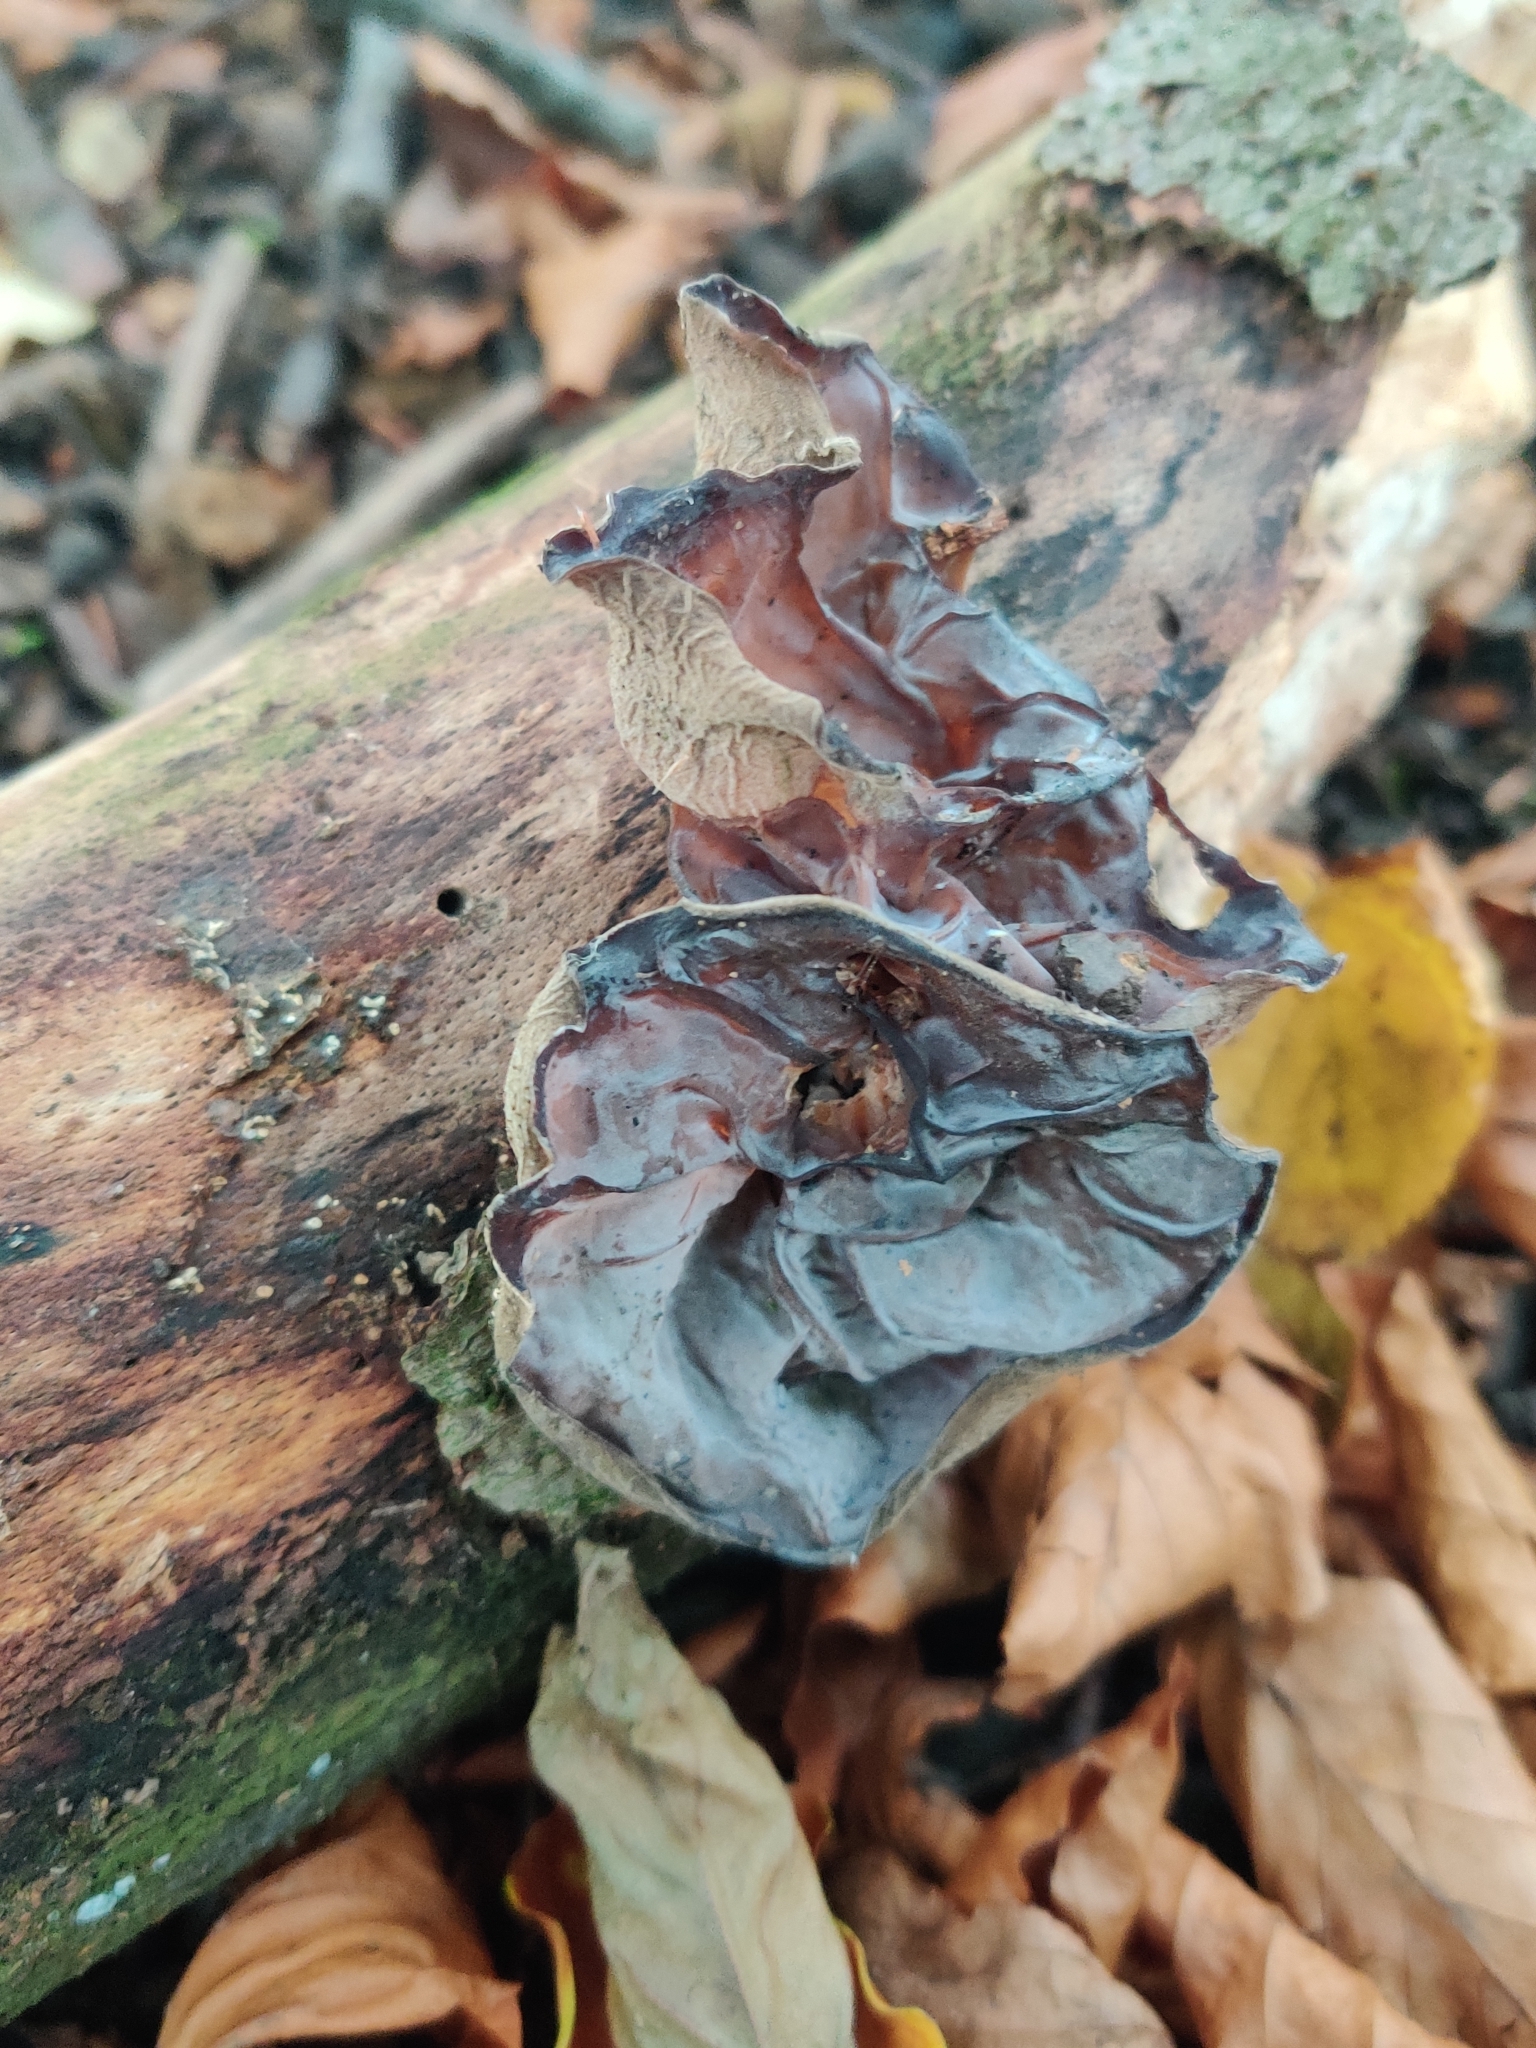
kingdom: Fungi
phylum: Basidiomycota
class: Agaricomycetes
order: Auriculariales
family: Auriculariaceae
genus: Auricularia
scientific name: Auricularia auricula-judae
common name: Jelly ear
